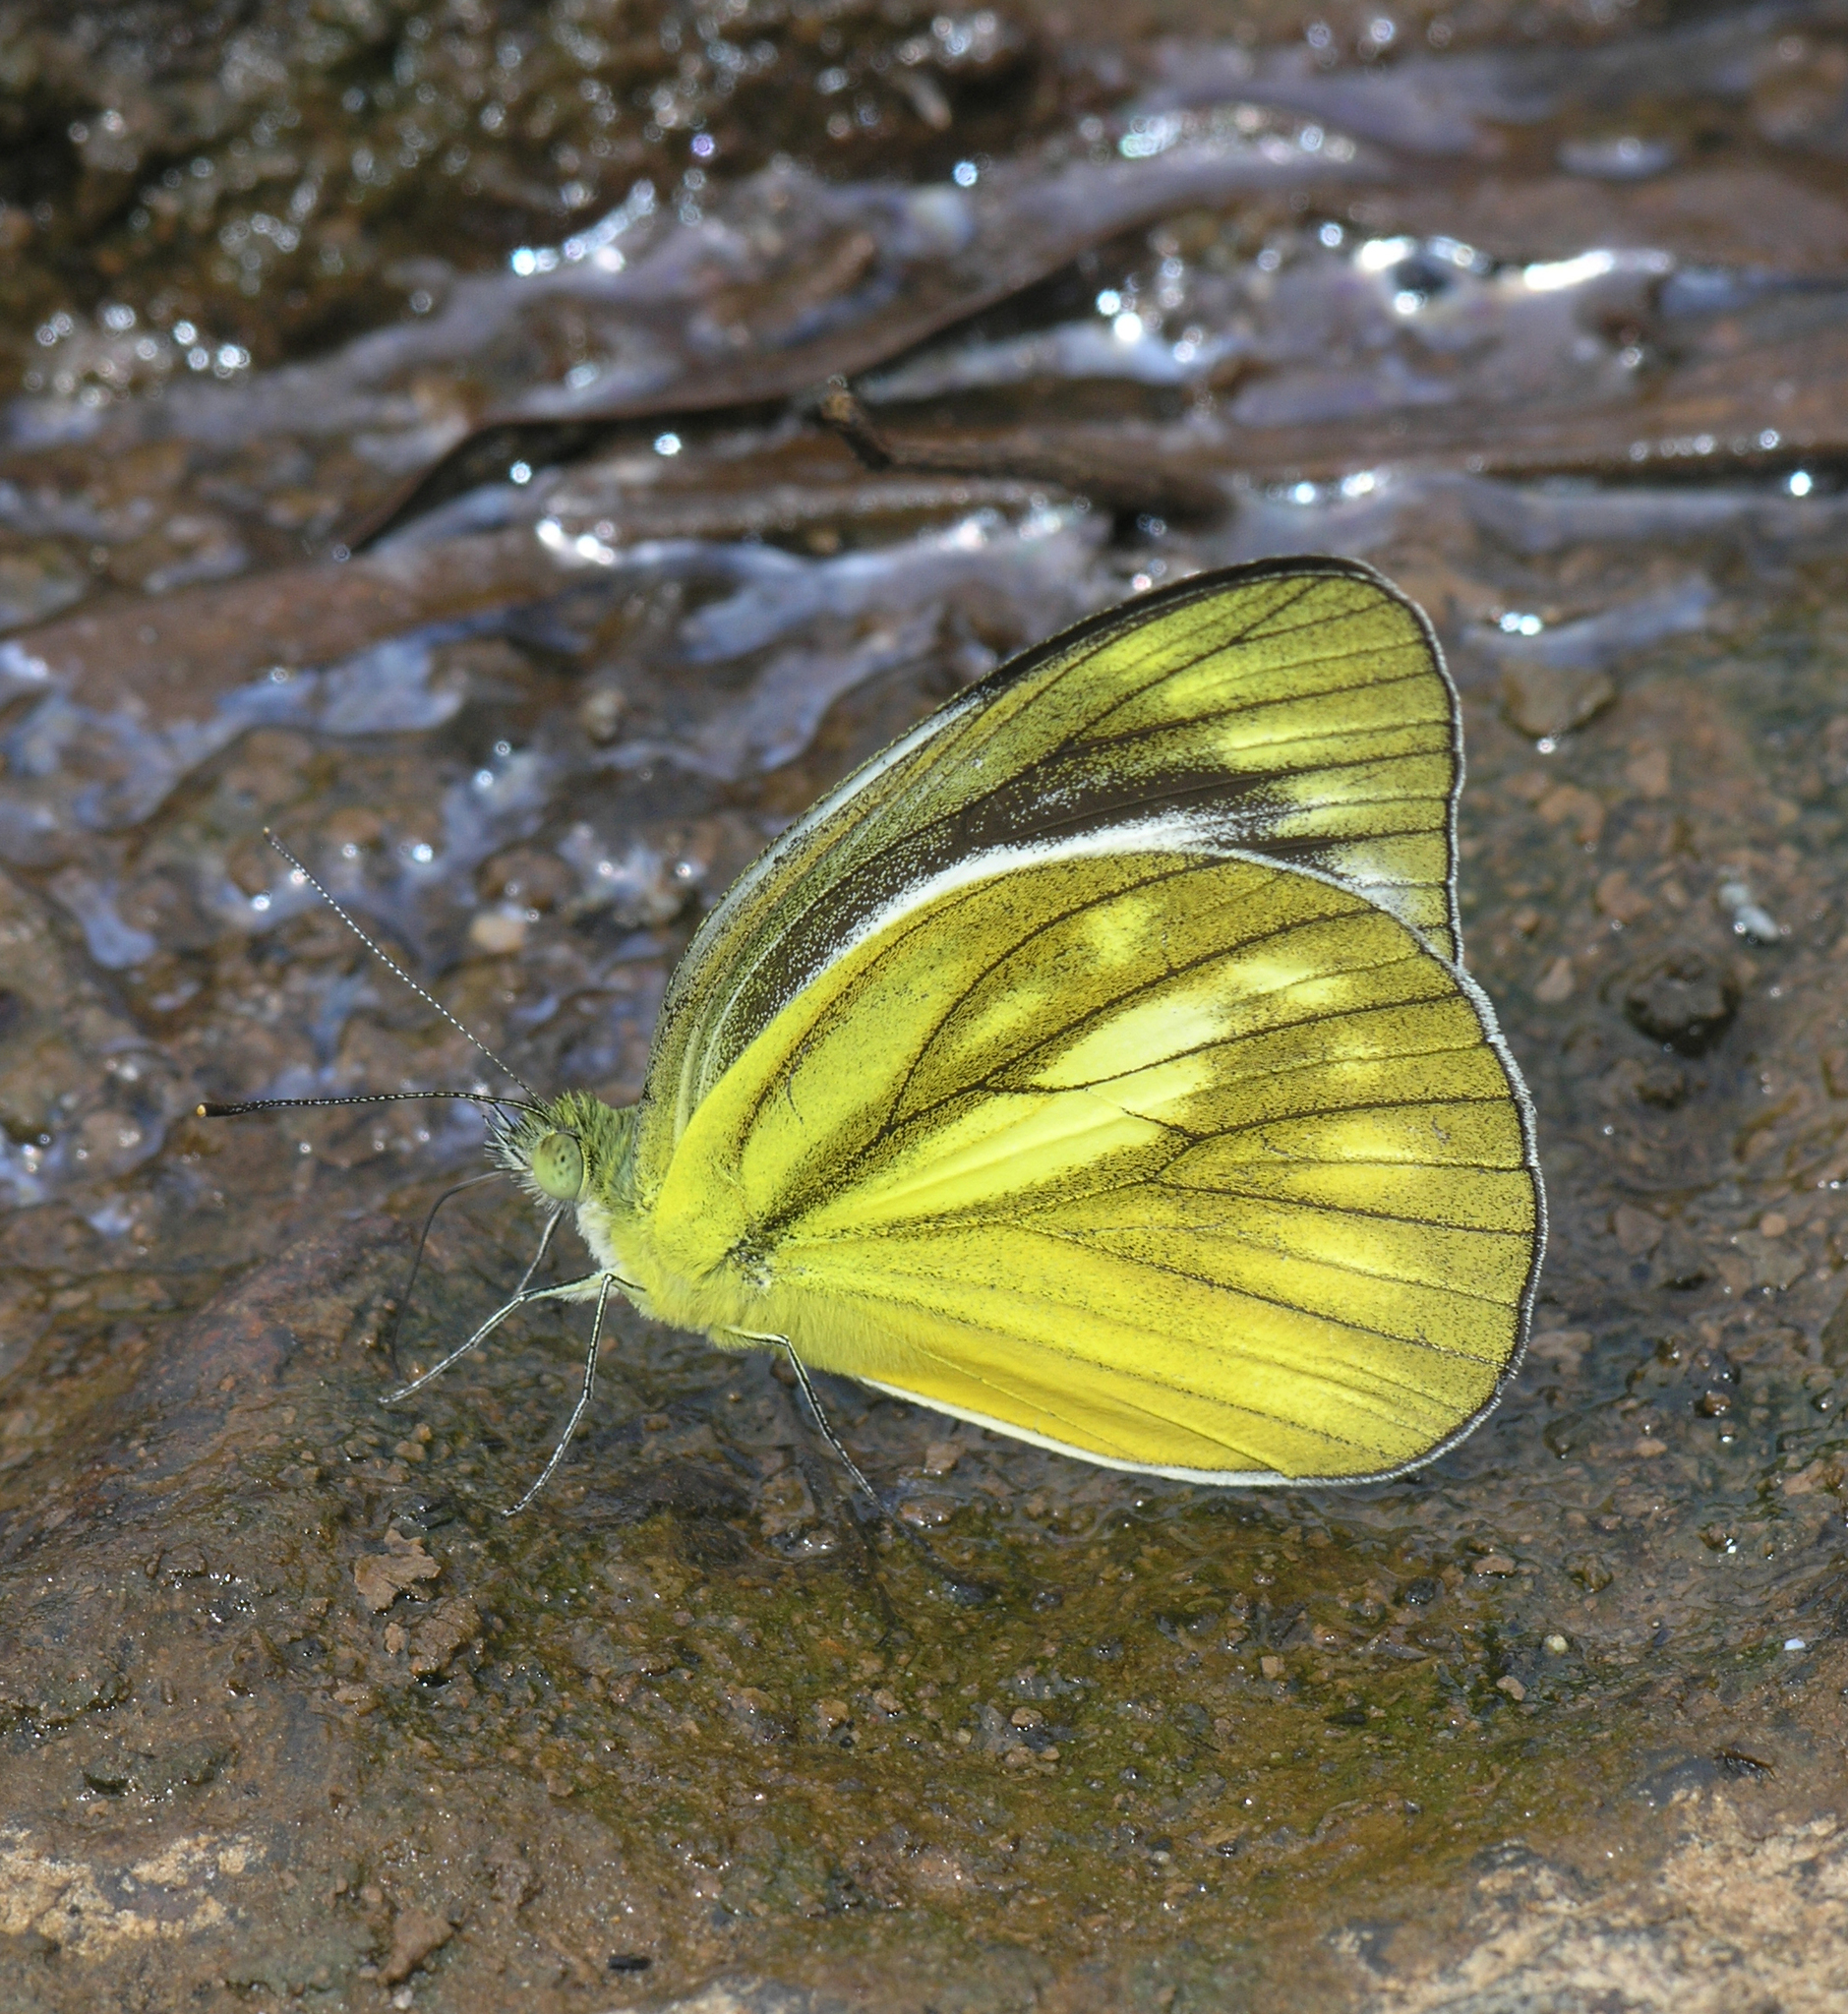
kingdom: Animalia
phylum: Arthropoda
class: Insecta
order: Lepidoptera
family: Pieridae
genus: Cepora
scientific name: Cepora nadina
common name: Lesser gull
